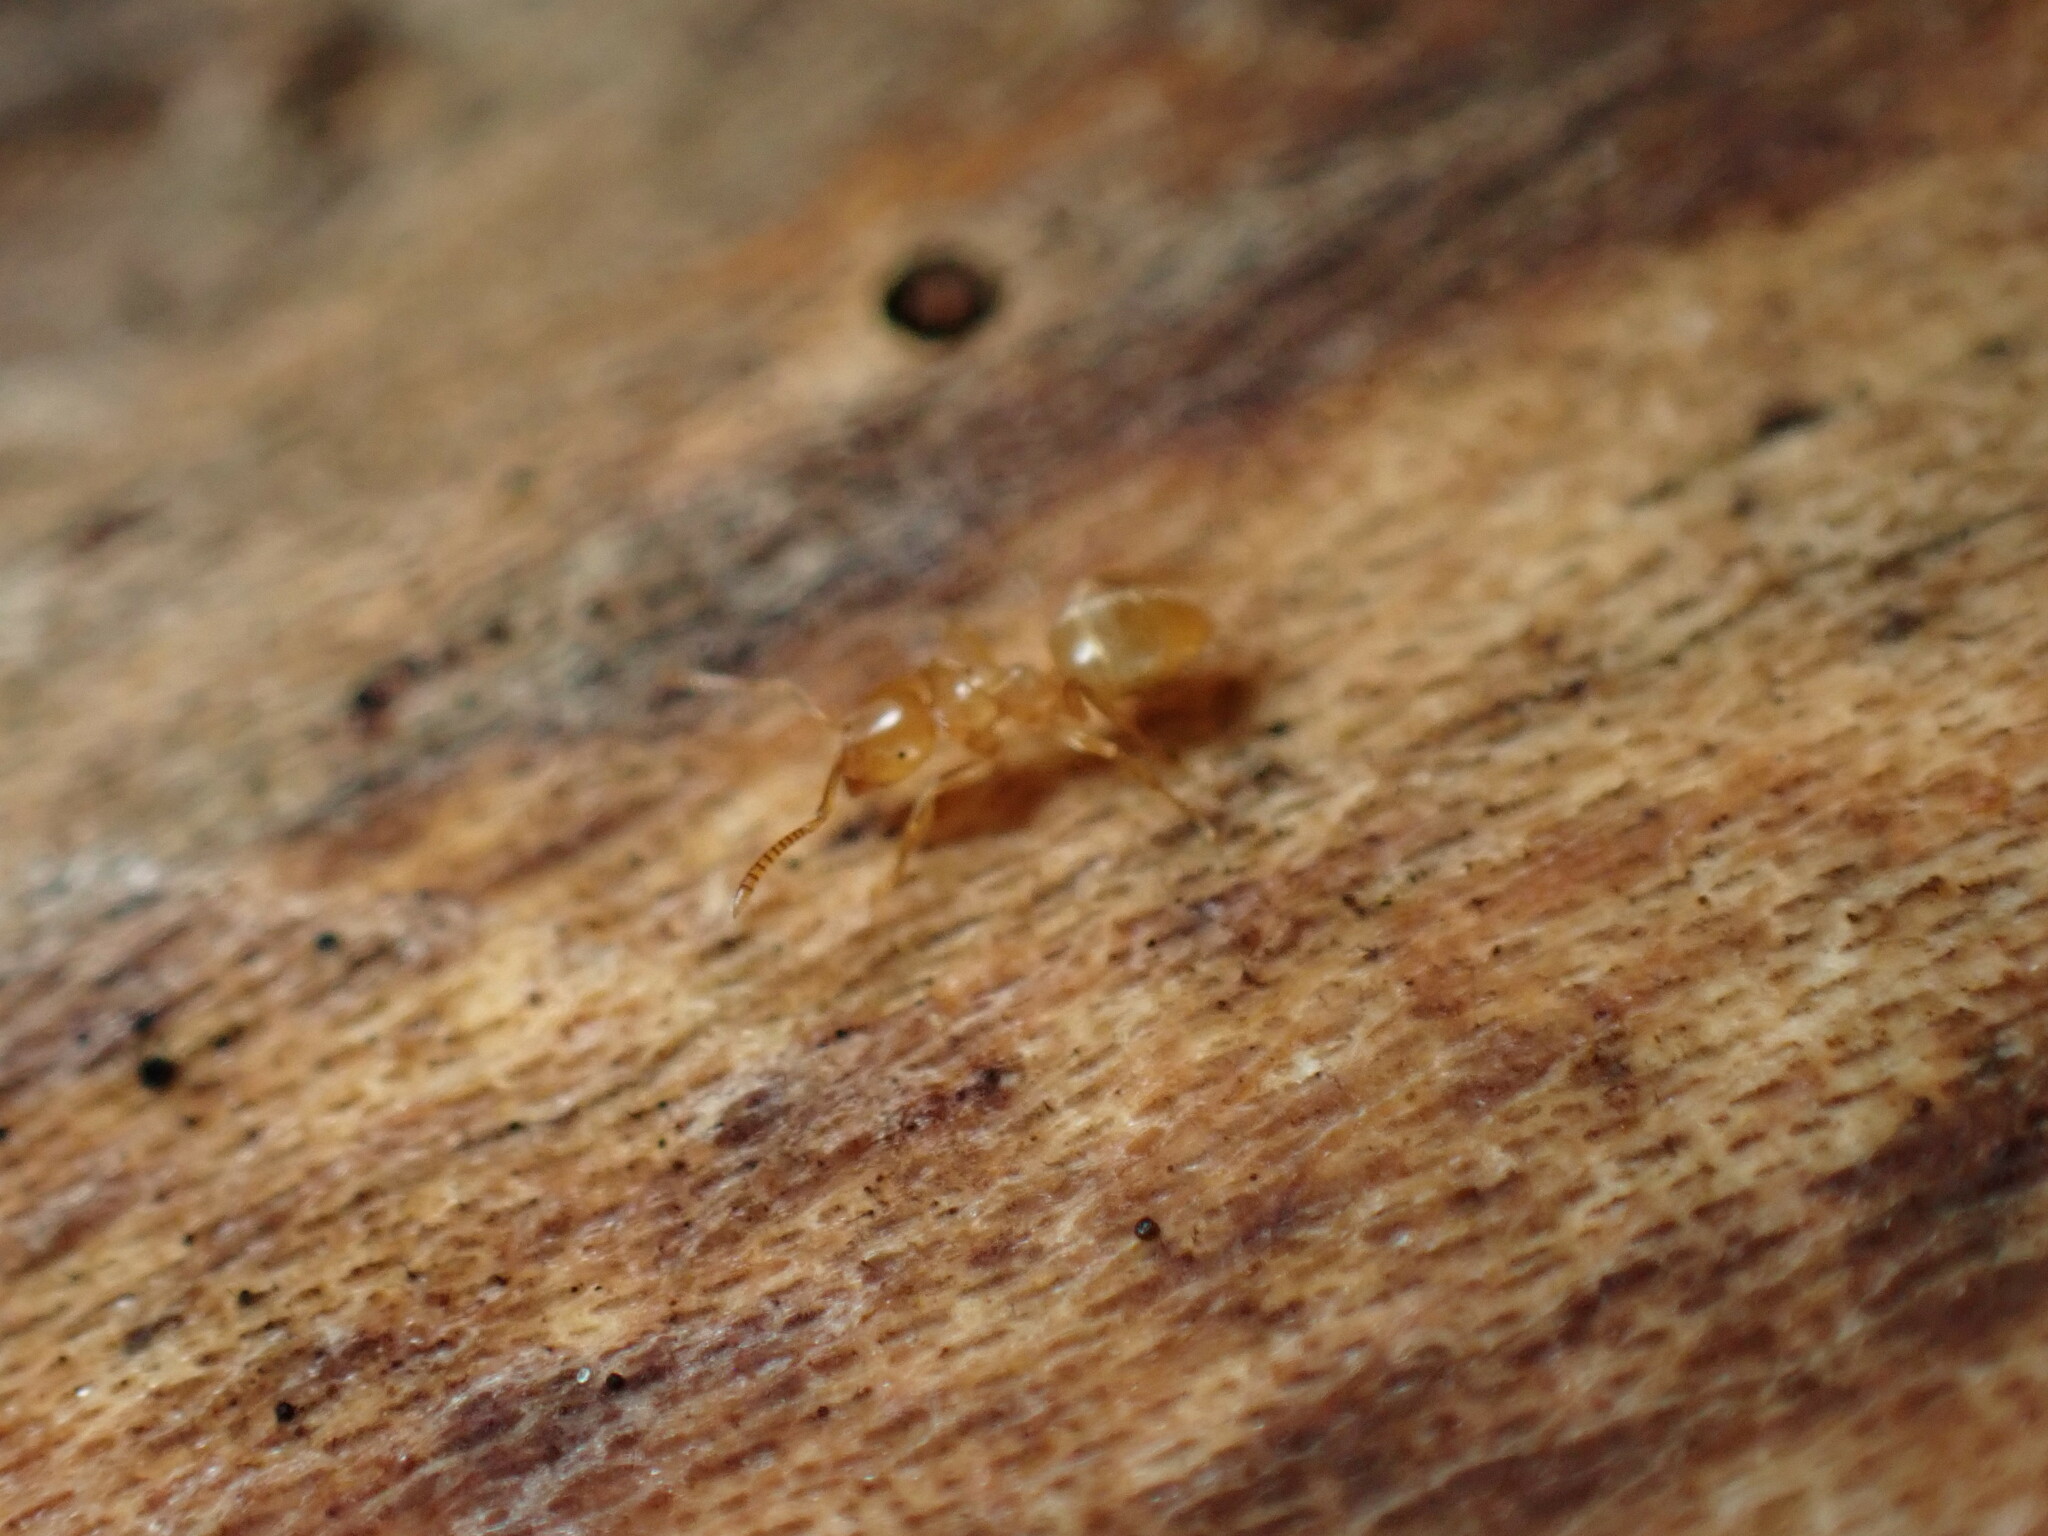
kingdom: Animalia
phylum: Arthropoda
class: Insecta
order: Hymenoptera
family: Formicidae
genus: Lasius
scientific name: Lasius nearcticus
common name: New world fuzzy ant
